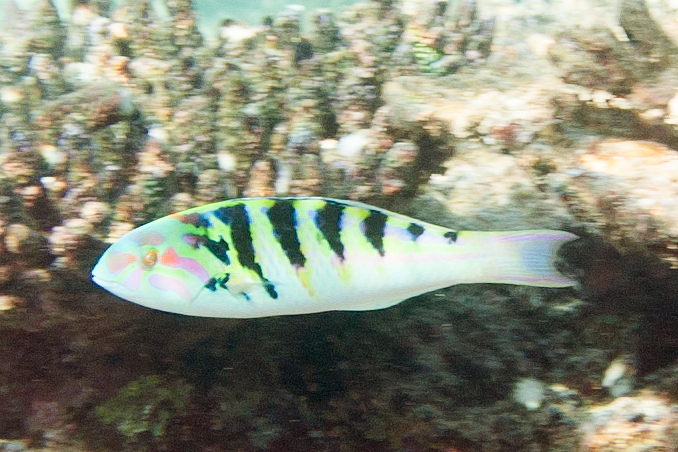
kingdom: Animalia
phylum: Chordata
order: Perciformes
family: Labridae
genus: Thalassoma
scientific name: Thalassoma hardwicke
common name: Sixbar wrasse
